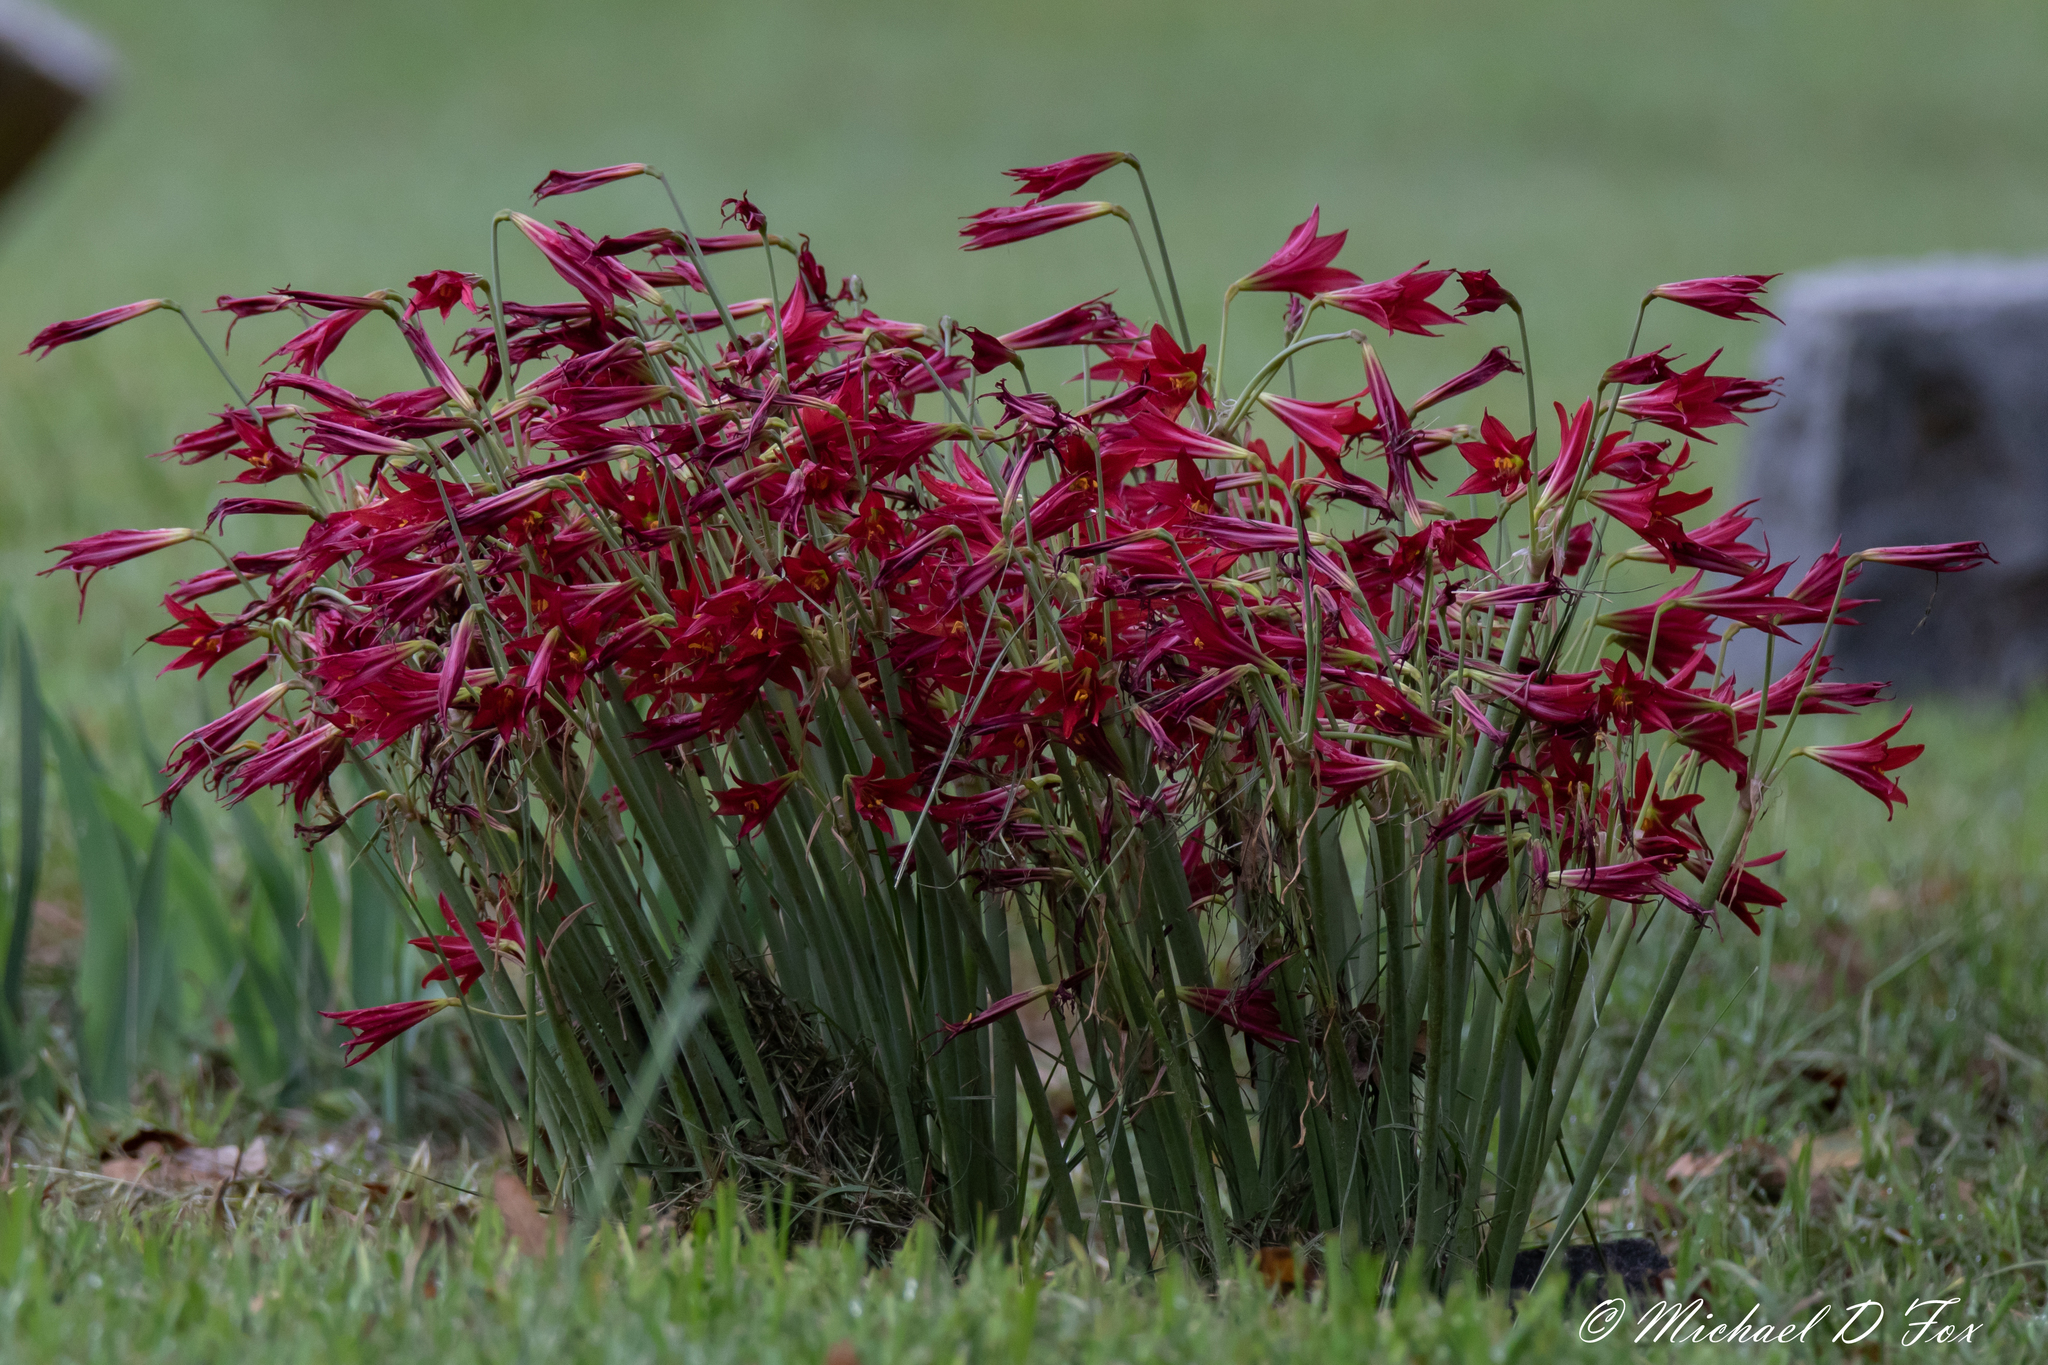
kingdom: Plantae
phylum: Tracheophyta
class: Liliopsida
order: Asparagales
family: Amaryllidaceae
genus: Zephyranthes
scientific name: Zephyranthes bifida
